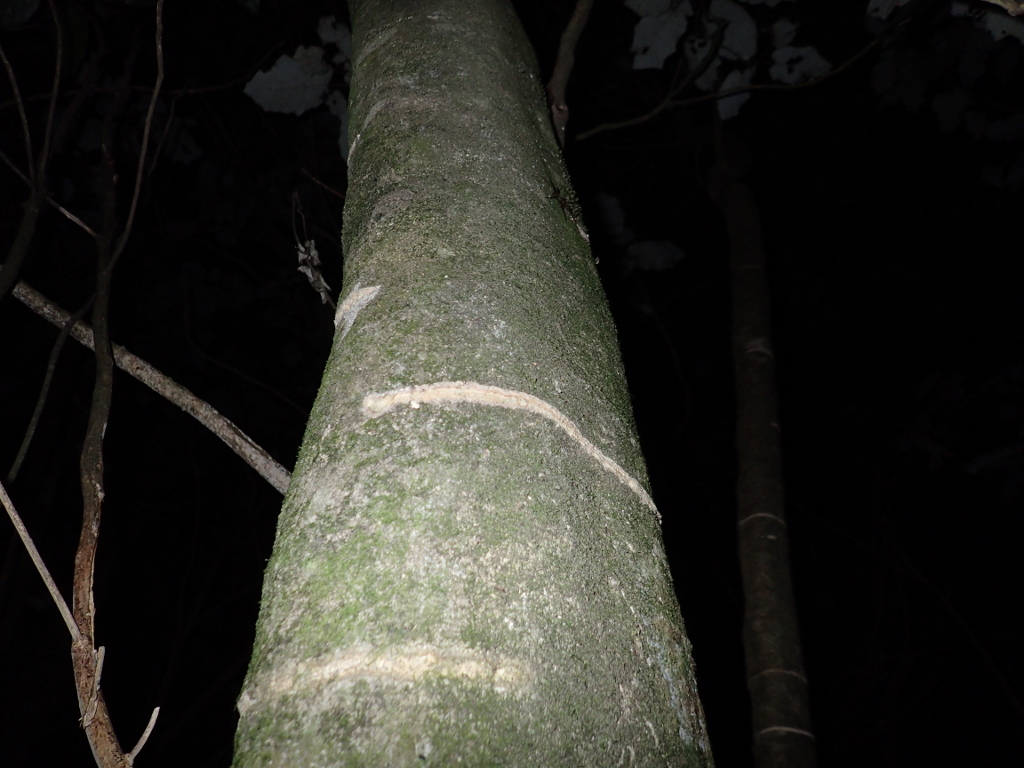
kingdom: Animalia
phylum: Chordata
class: Aves
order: Psittaciformes
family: Psittacidae
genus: Nestor
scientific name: Nestor meridionalis
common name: New zealand kaka
